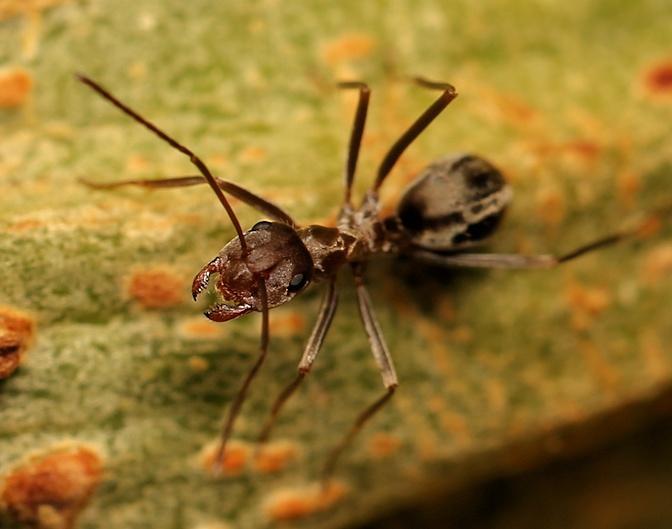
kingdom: Animalia
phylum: Arthropoda
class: Insecta
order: Hymenoptera
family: Formicidae
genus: Anoplolepis
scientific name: Anoplolepis custodiens
